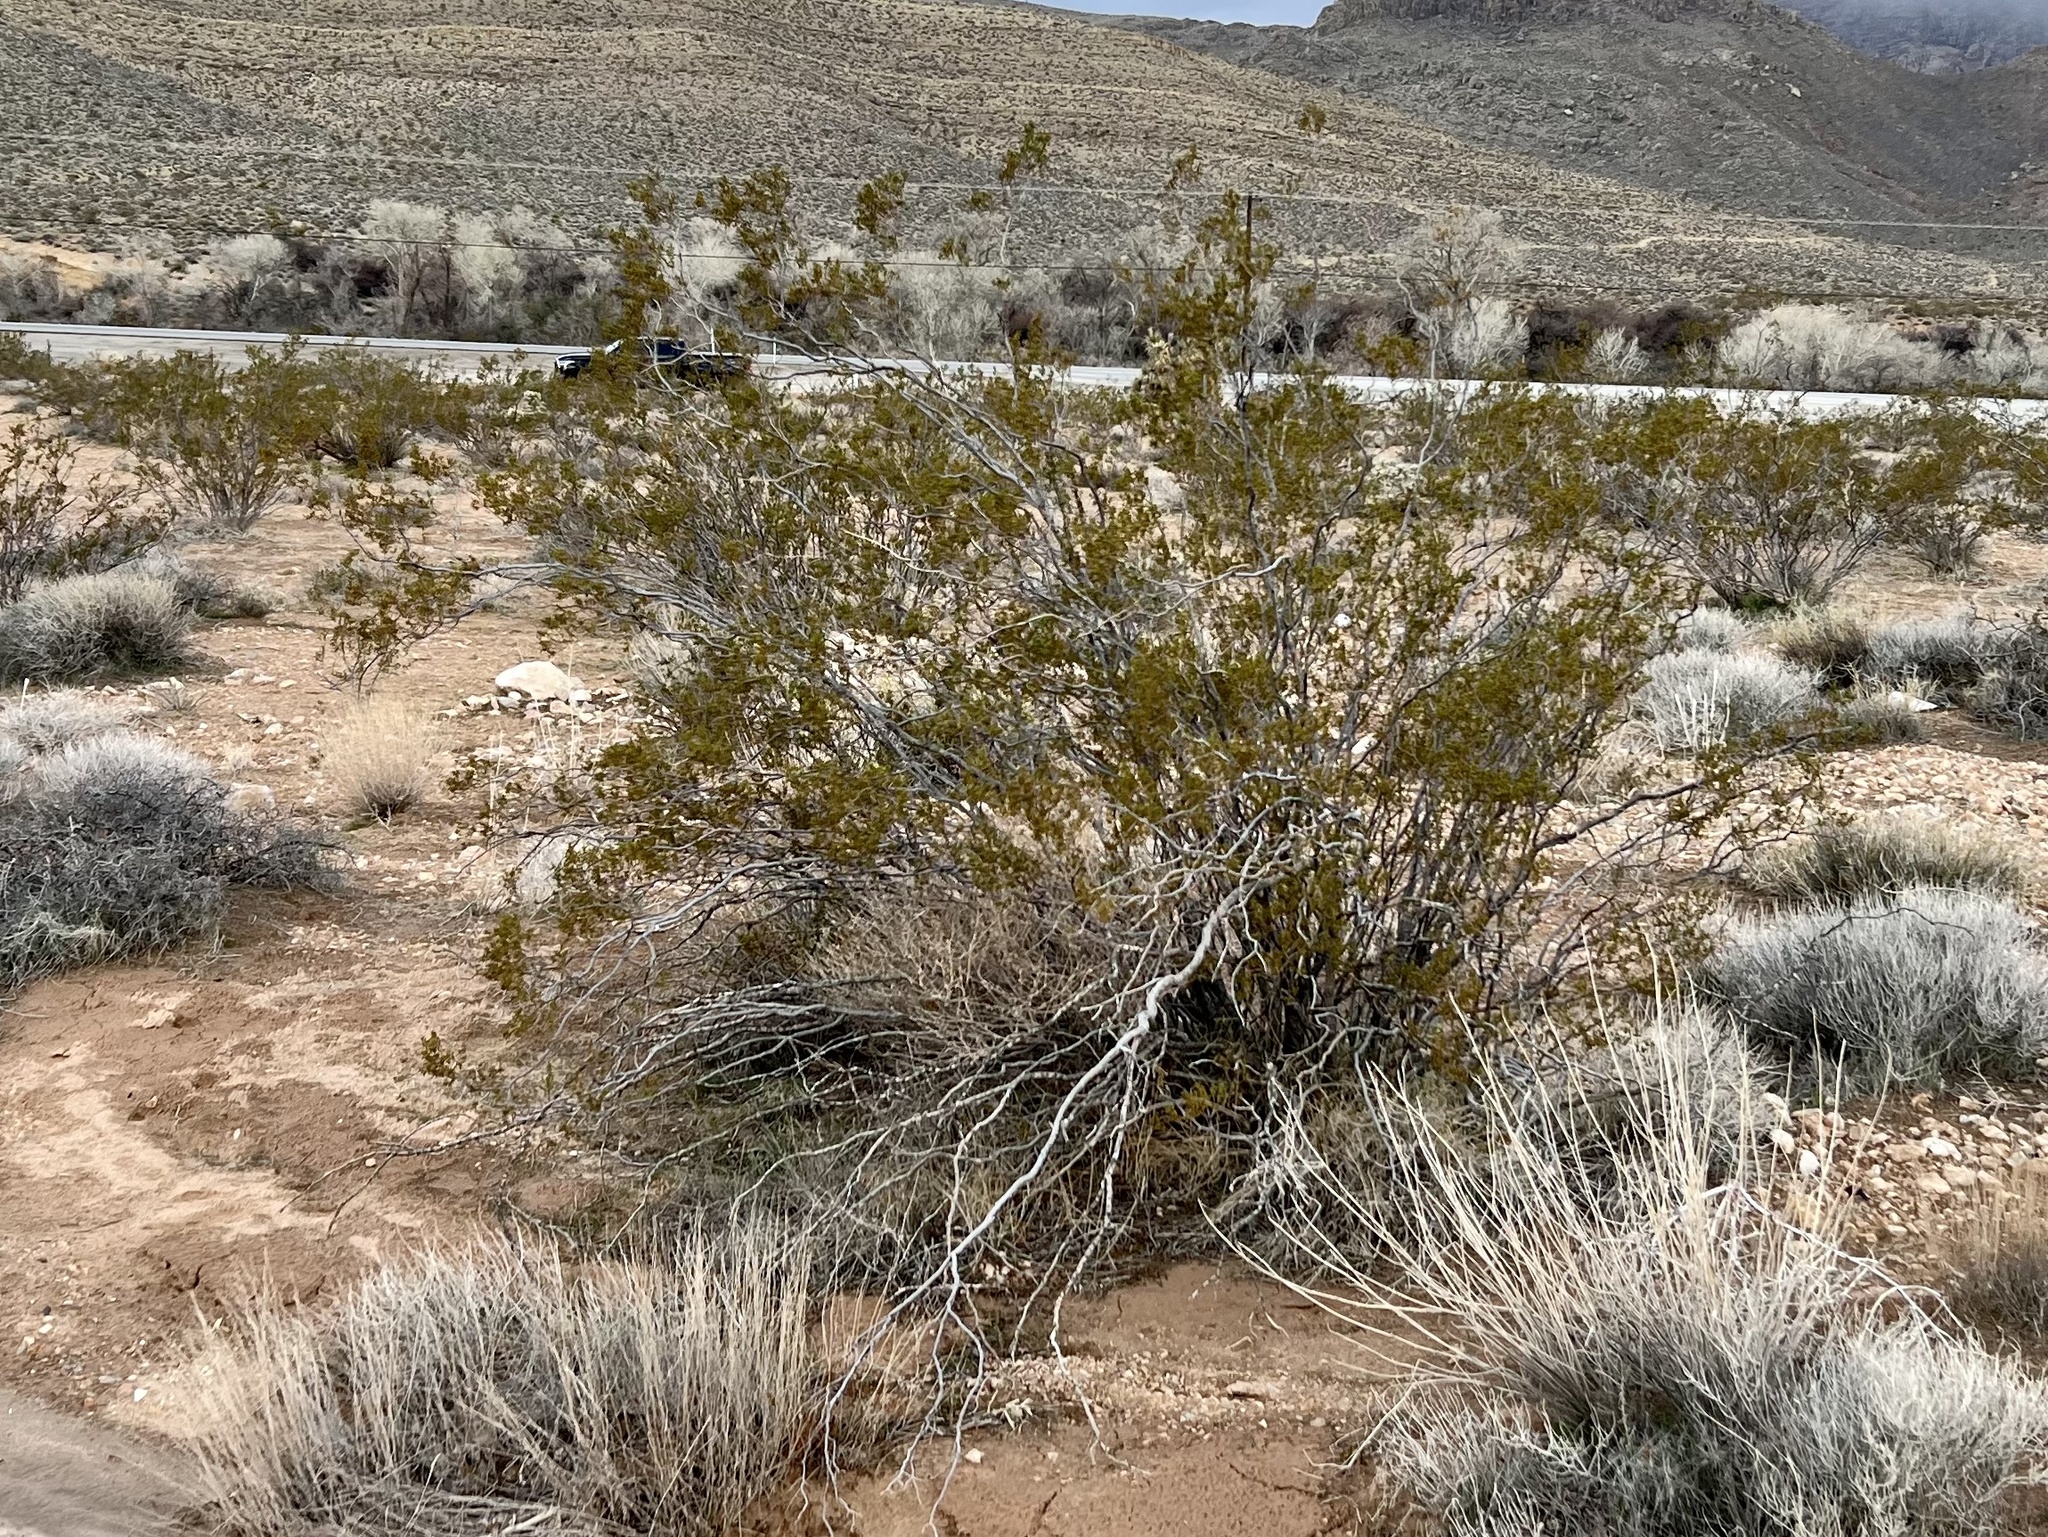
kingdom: Plantae
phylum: Tracheophyta
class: Magnoliopsida
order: Zygophyllales
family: Zygophyllaceae
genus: Larrea
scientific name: Larrea tridentata
